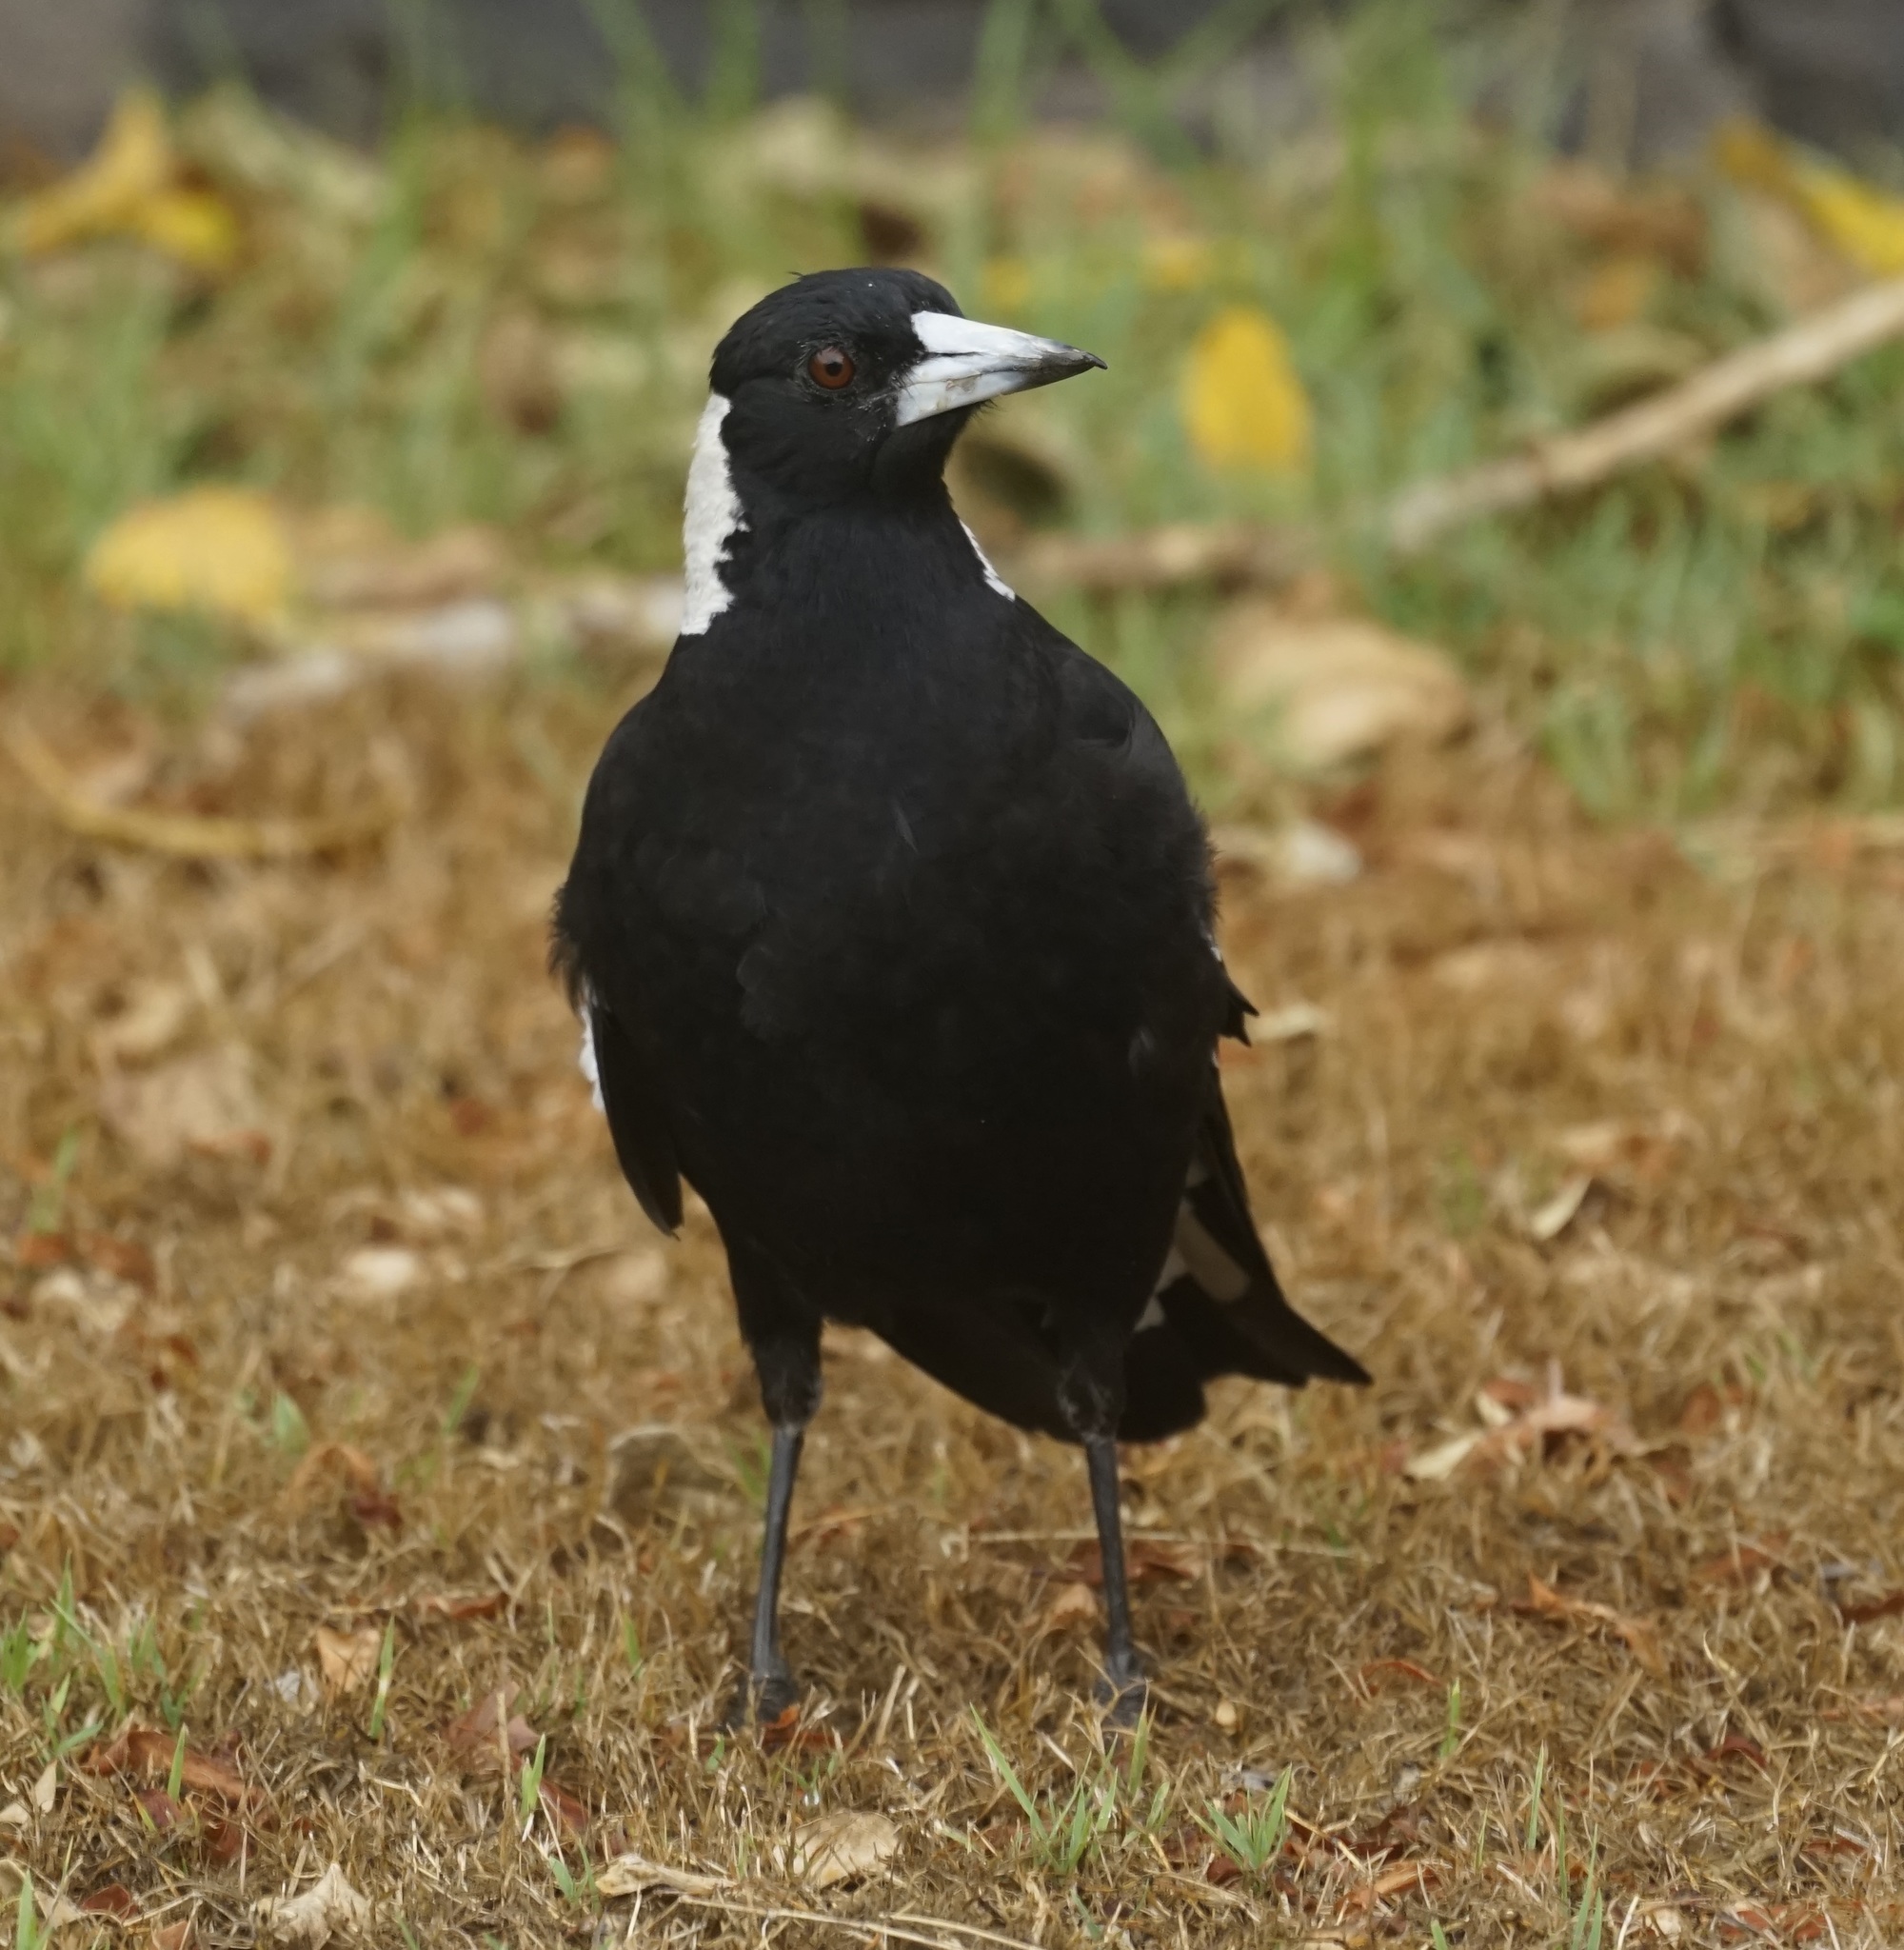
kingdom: Animalia
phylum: Chordata
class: Aves
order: Passeriformes
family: Cracticidae
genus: Gymnorhina
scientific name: Gymnorhina tibicen
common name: Australian magpie
